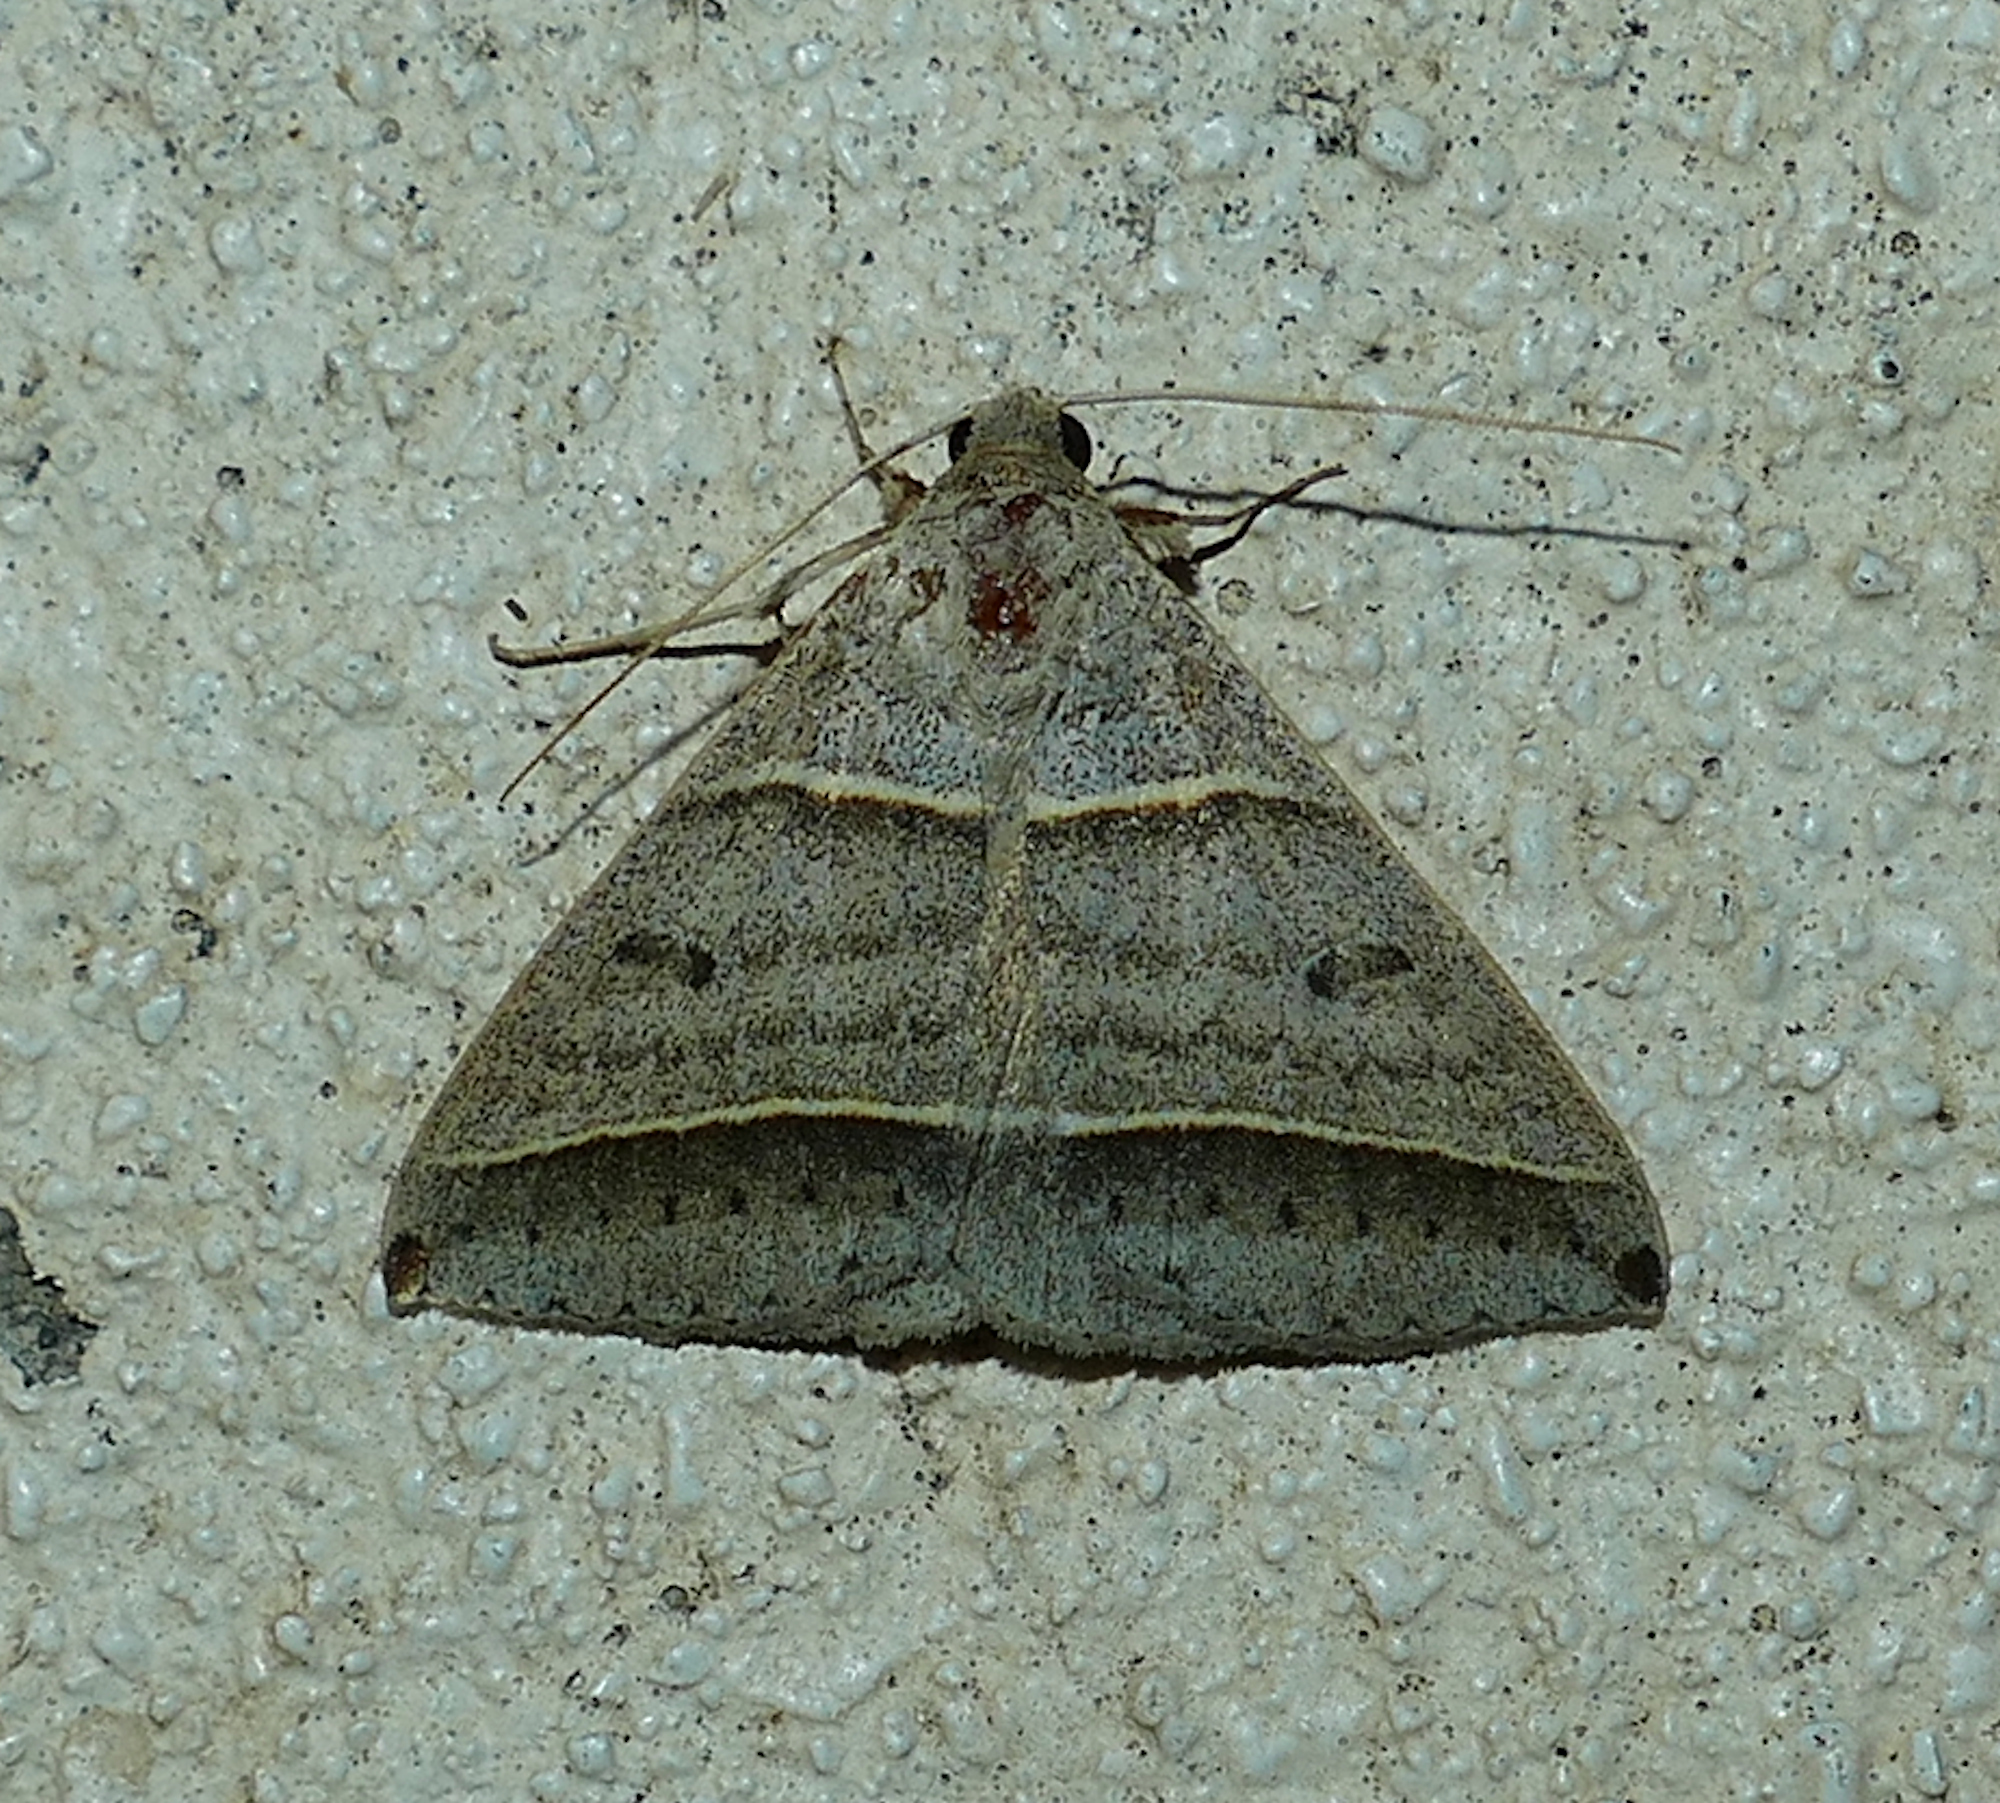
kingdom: Animalia
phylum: Arthropoda
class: Insecta
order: Lepidoptera
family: Erebidae
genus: Ptichodis
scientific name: Ptichodis vinculum
